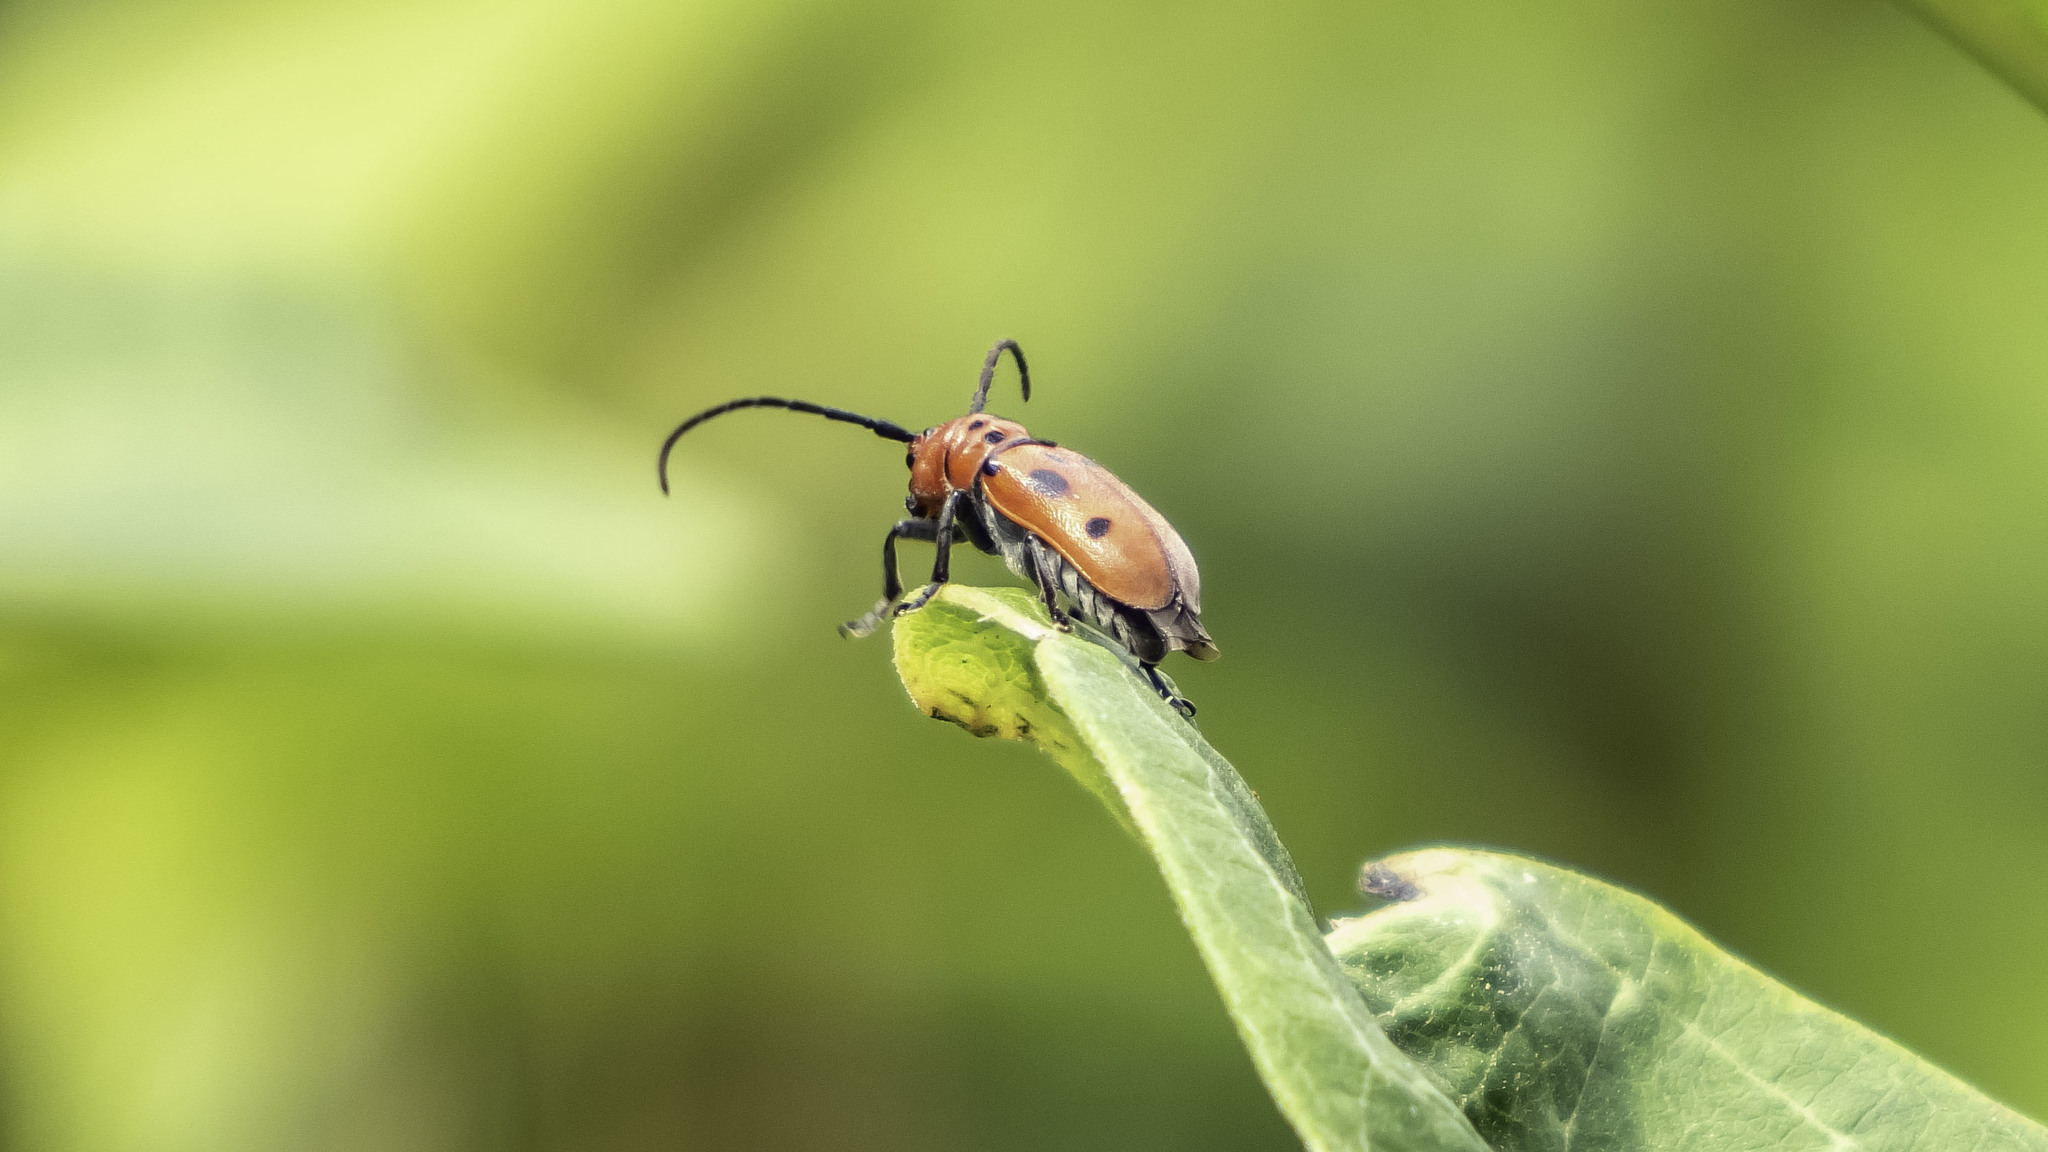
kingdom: Animalia
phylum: Arthropoda
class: Insecta
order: Coleoptera
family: Cerambycidae
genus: Tetraopes
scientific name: Tetraopes tetrophthalmus
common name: Red milkweed beetle
